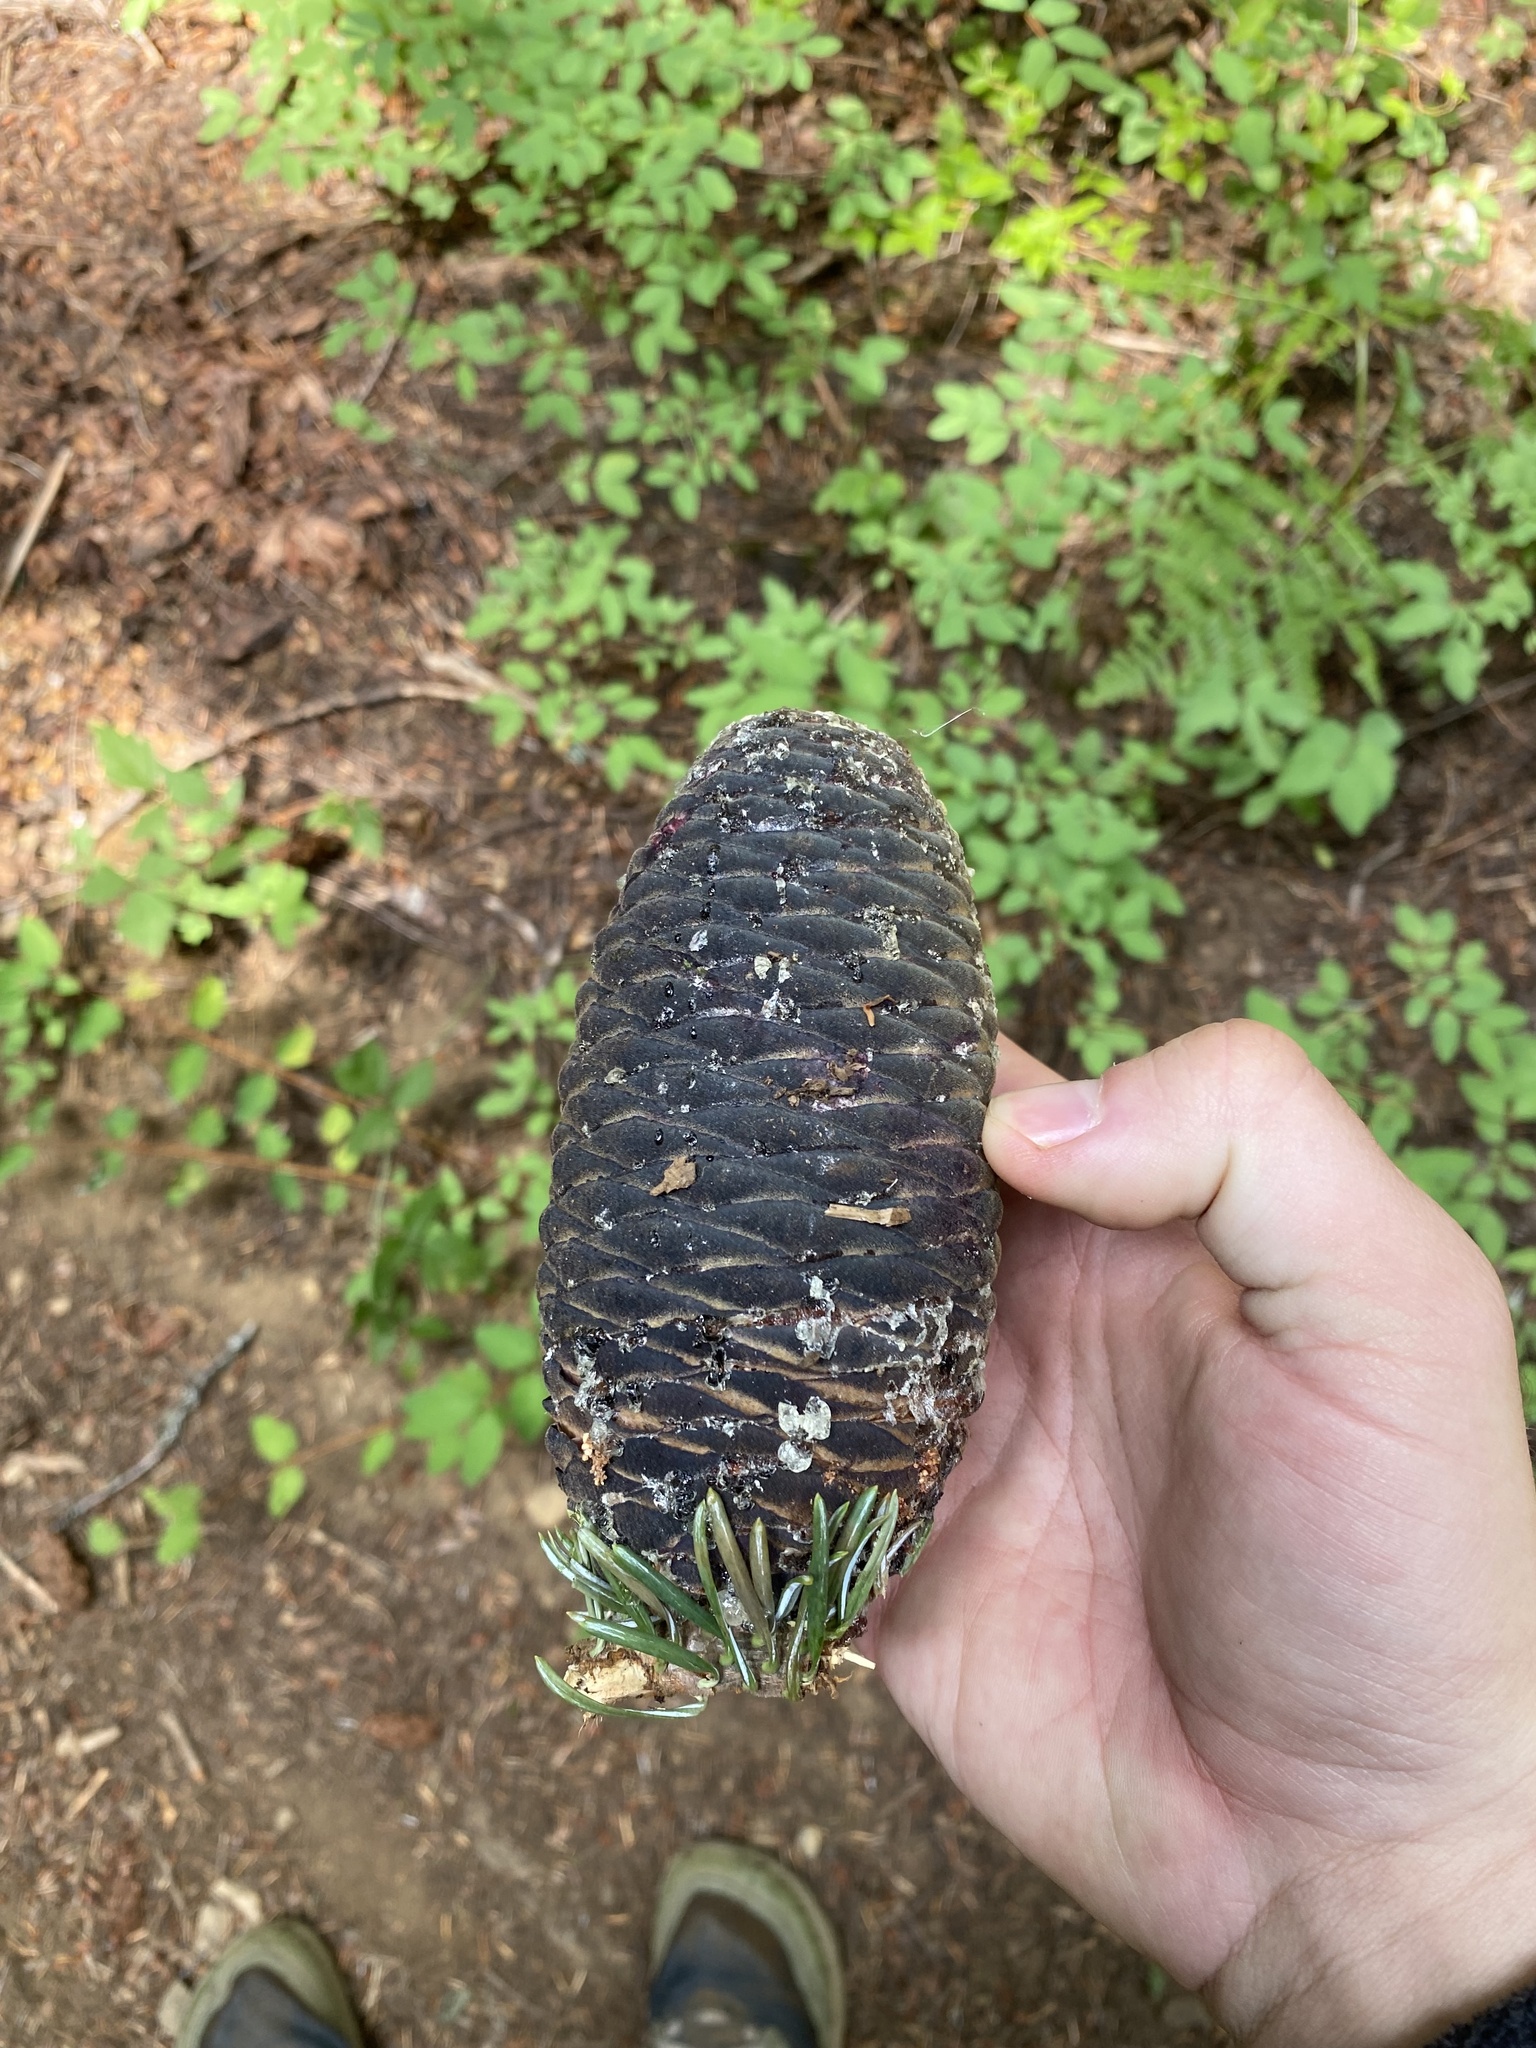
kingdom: Plantae
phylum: Tracheophyta
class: Pinopsida
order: Pinales
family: Pinaceae
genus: Abies
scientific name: Abies amabilis
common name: Pacific silver fir
